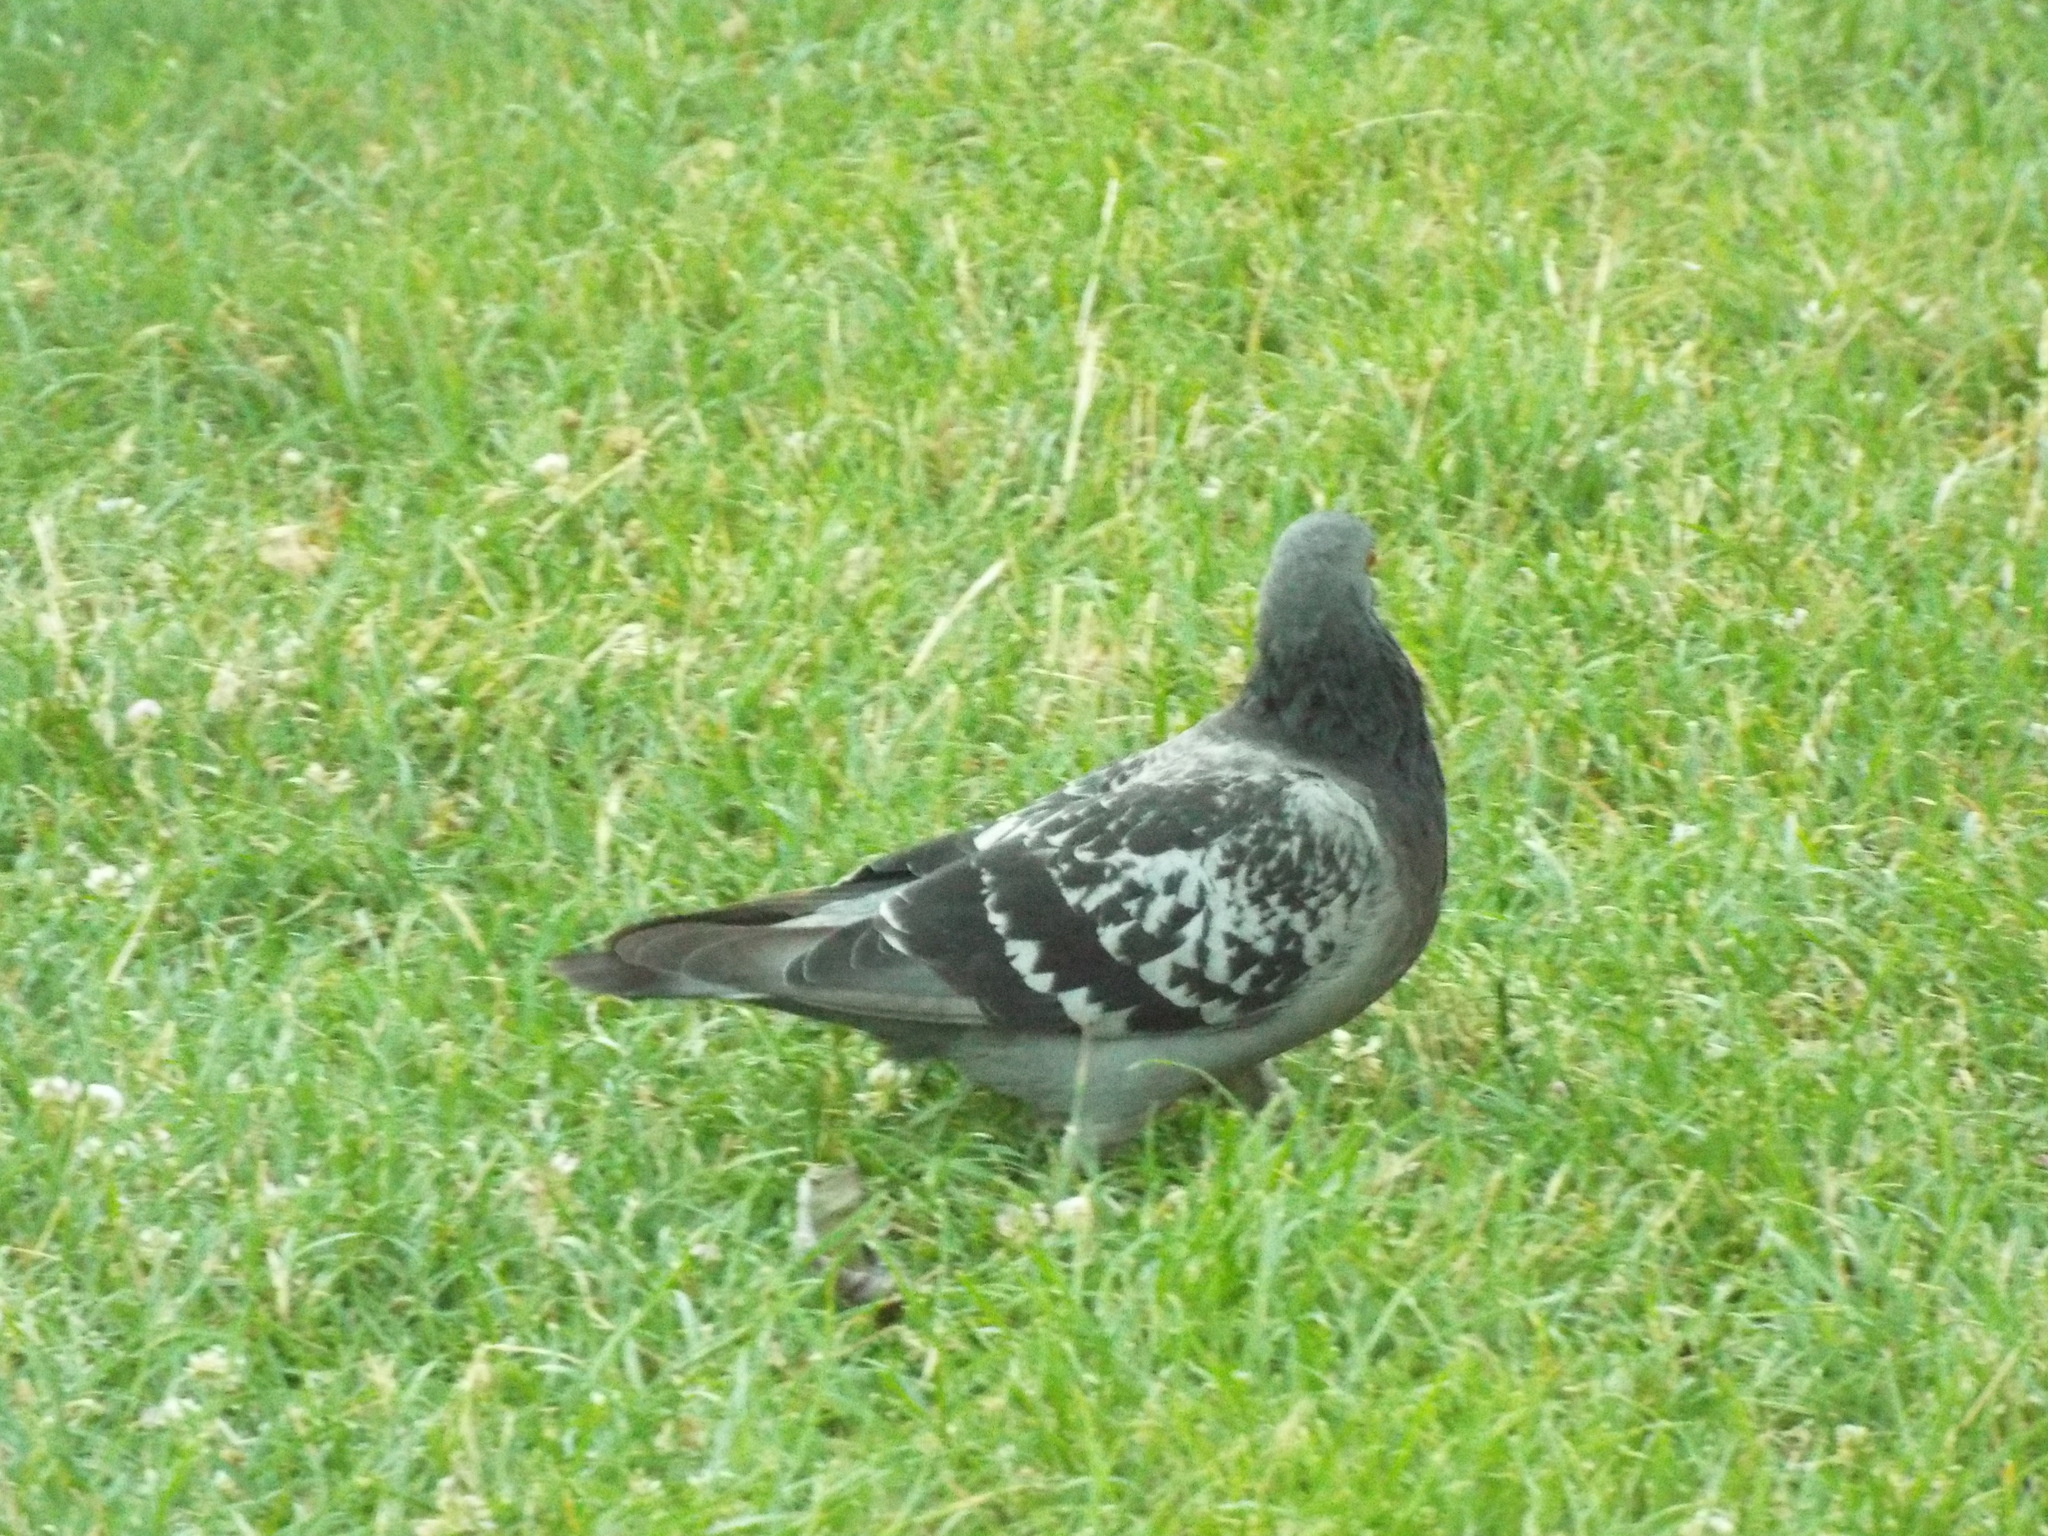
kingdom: Animalia
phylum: Chordata
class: Aves
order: Columbiformes
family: Columbidae
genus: Columba
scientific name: Columba livia
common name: Rock pigeon
